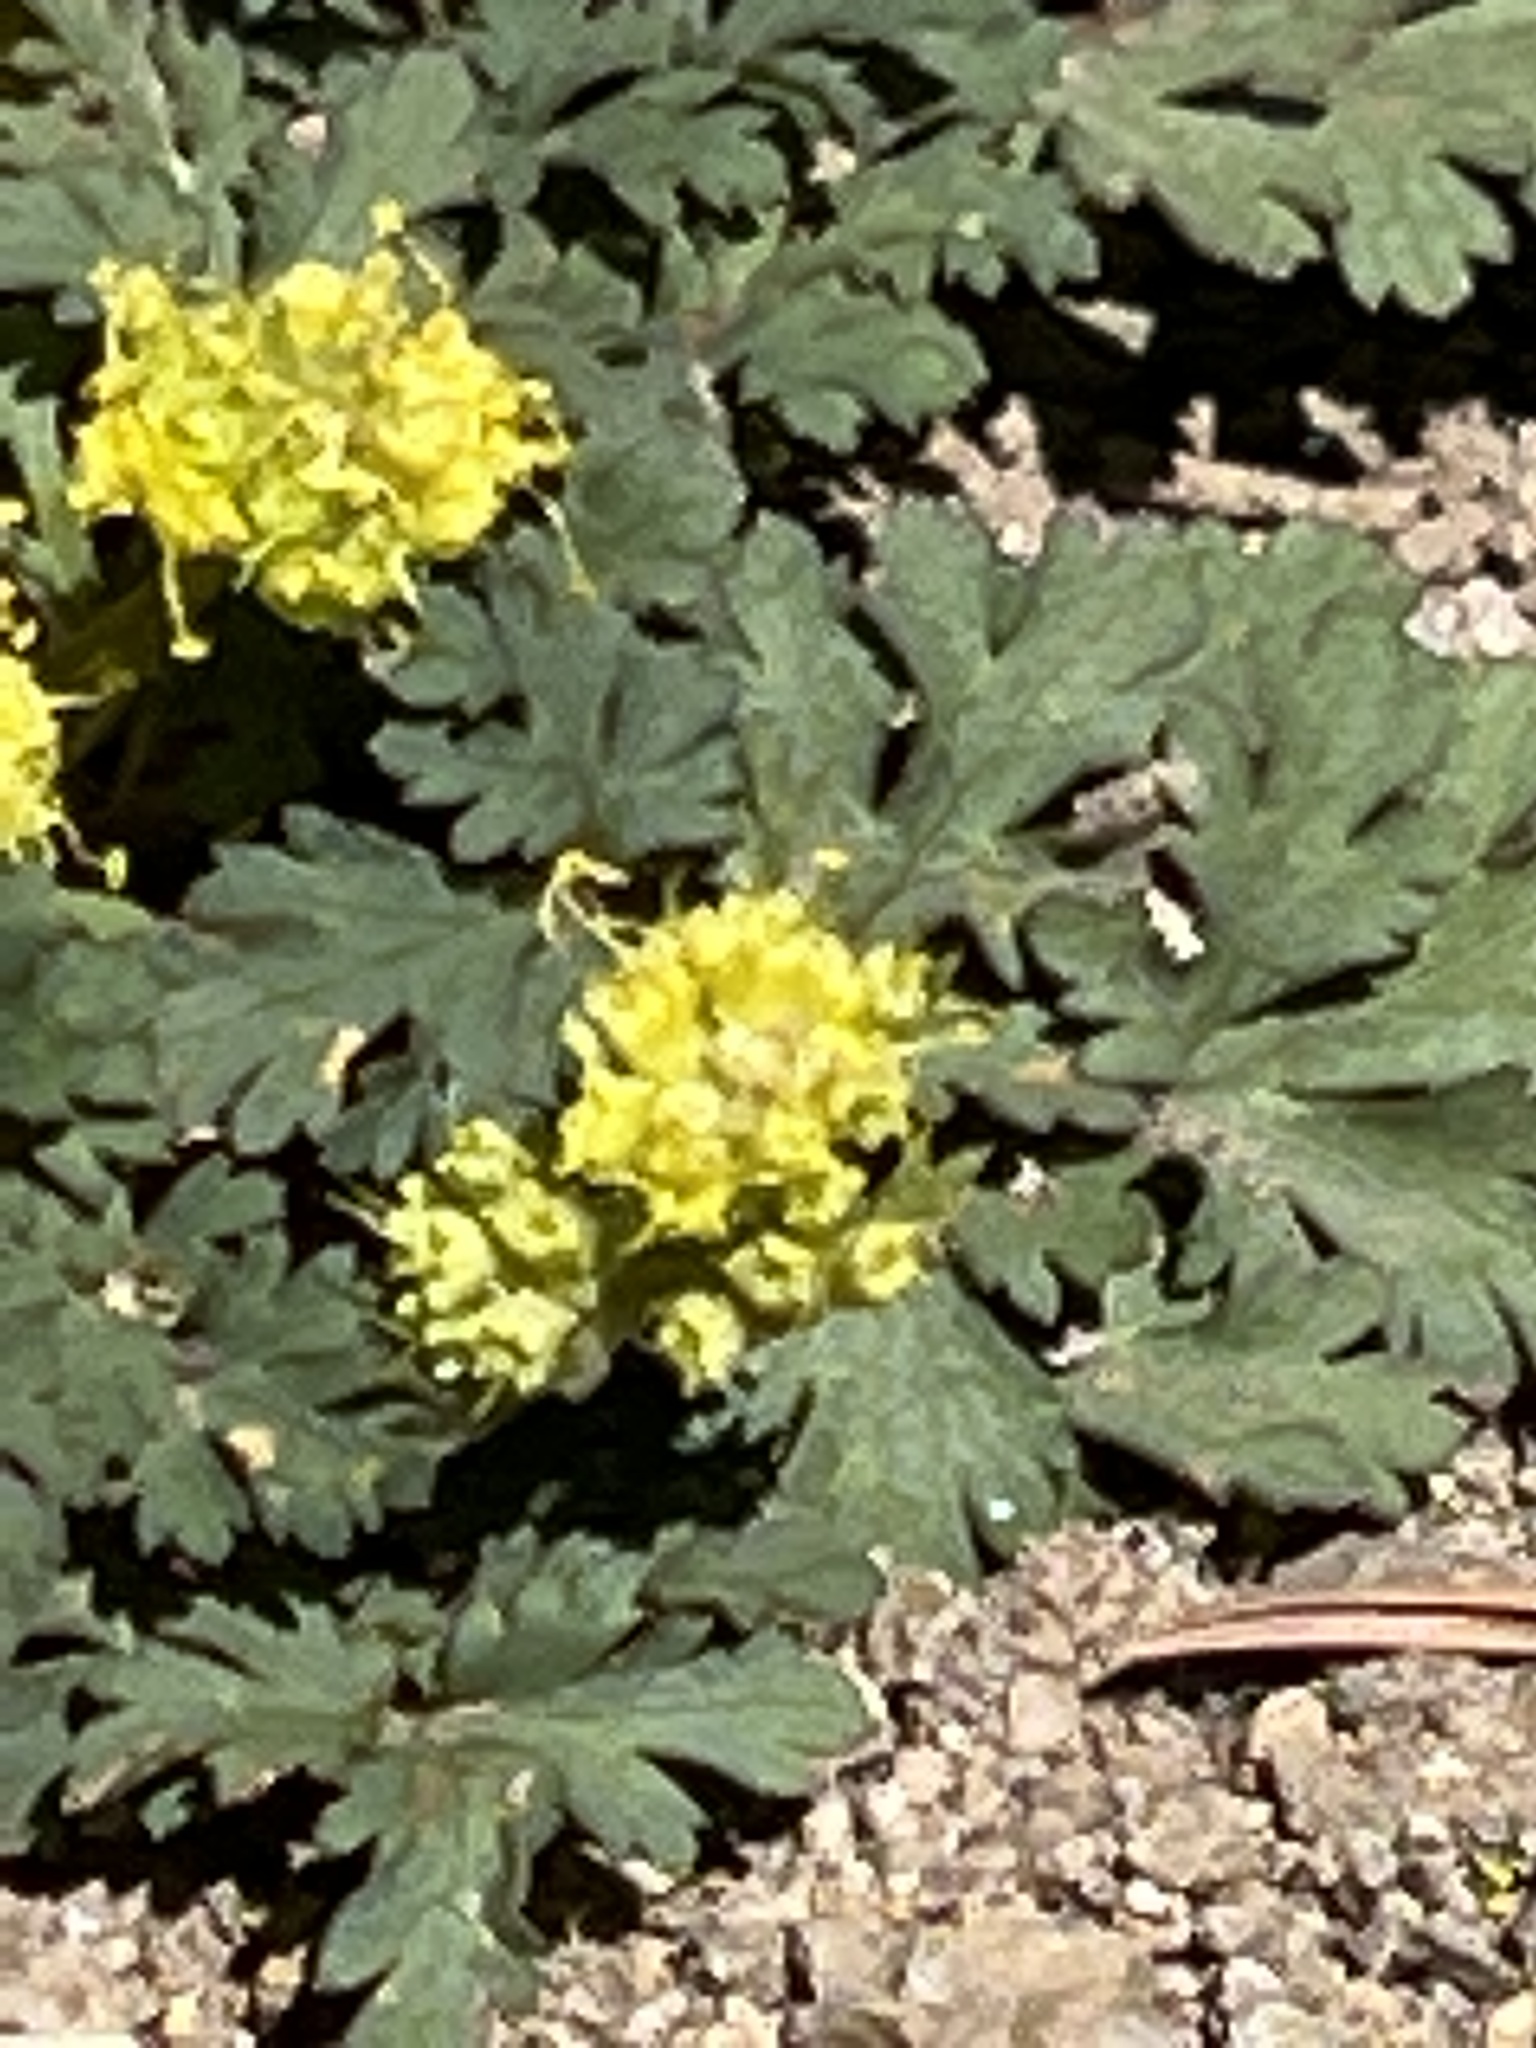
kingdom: Plantae
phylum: Tracheophyta
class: Magnoliopsida
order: Apiales
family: Apiaceae
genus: Sanicula
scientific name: Sanicula graveolens
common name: Sierra sanicle
